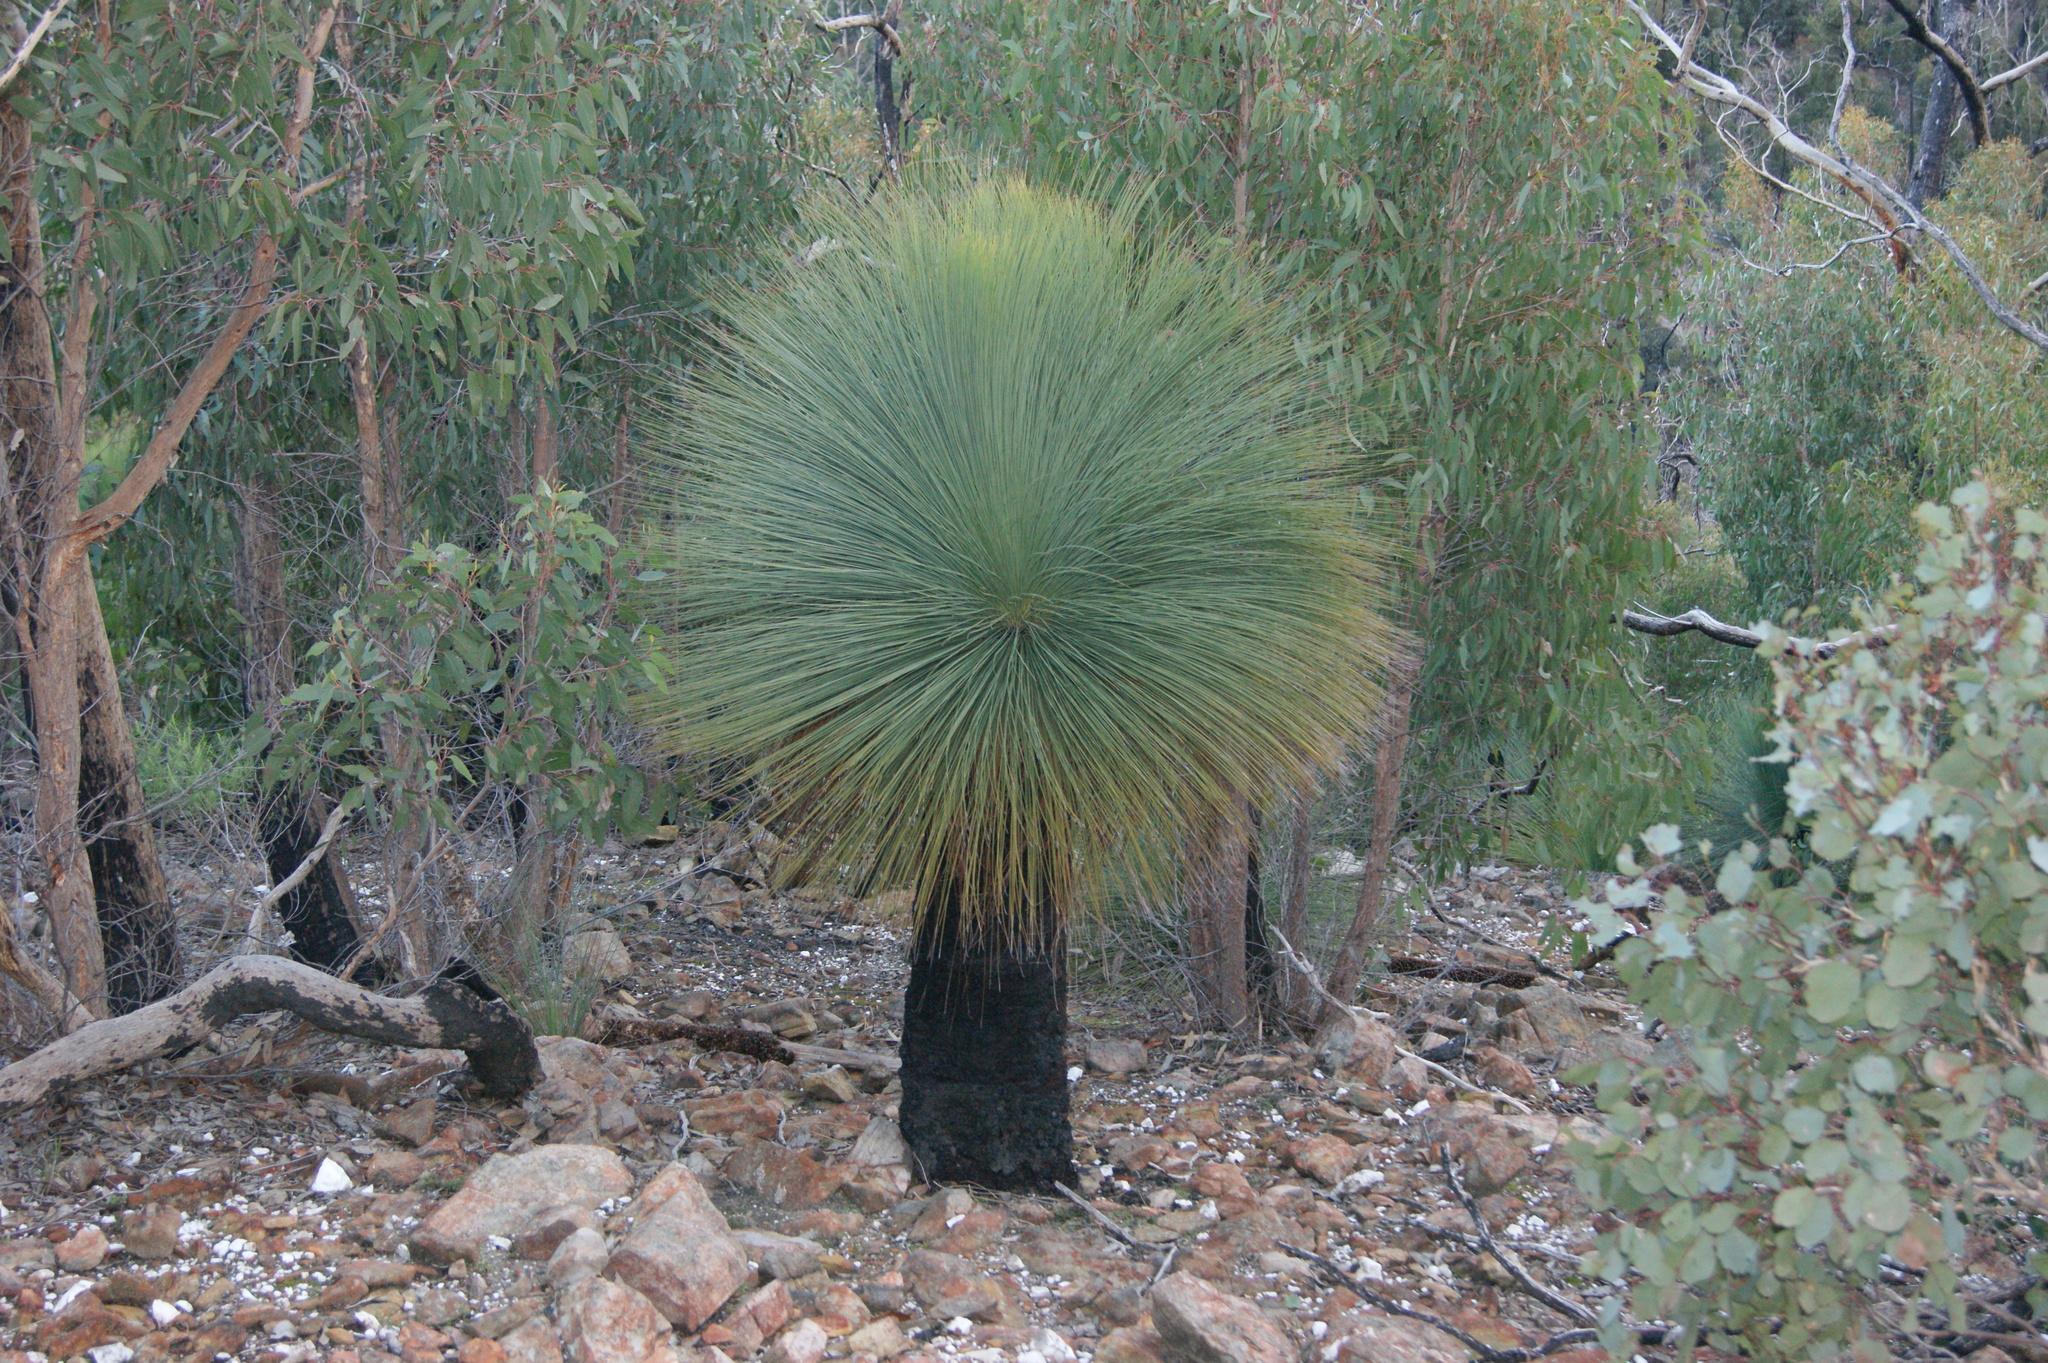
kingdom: Plantae
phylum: Tracheophyta
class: Liliopsida
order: Asparagales
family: Asphodelaceae
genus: Xanthorrhoea
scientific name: Xanthorrhoea australis
